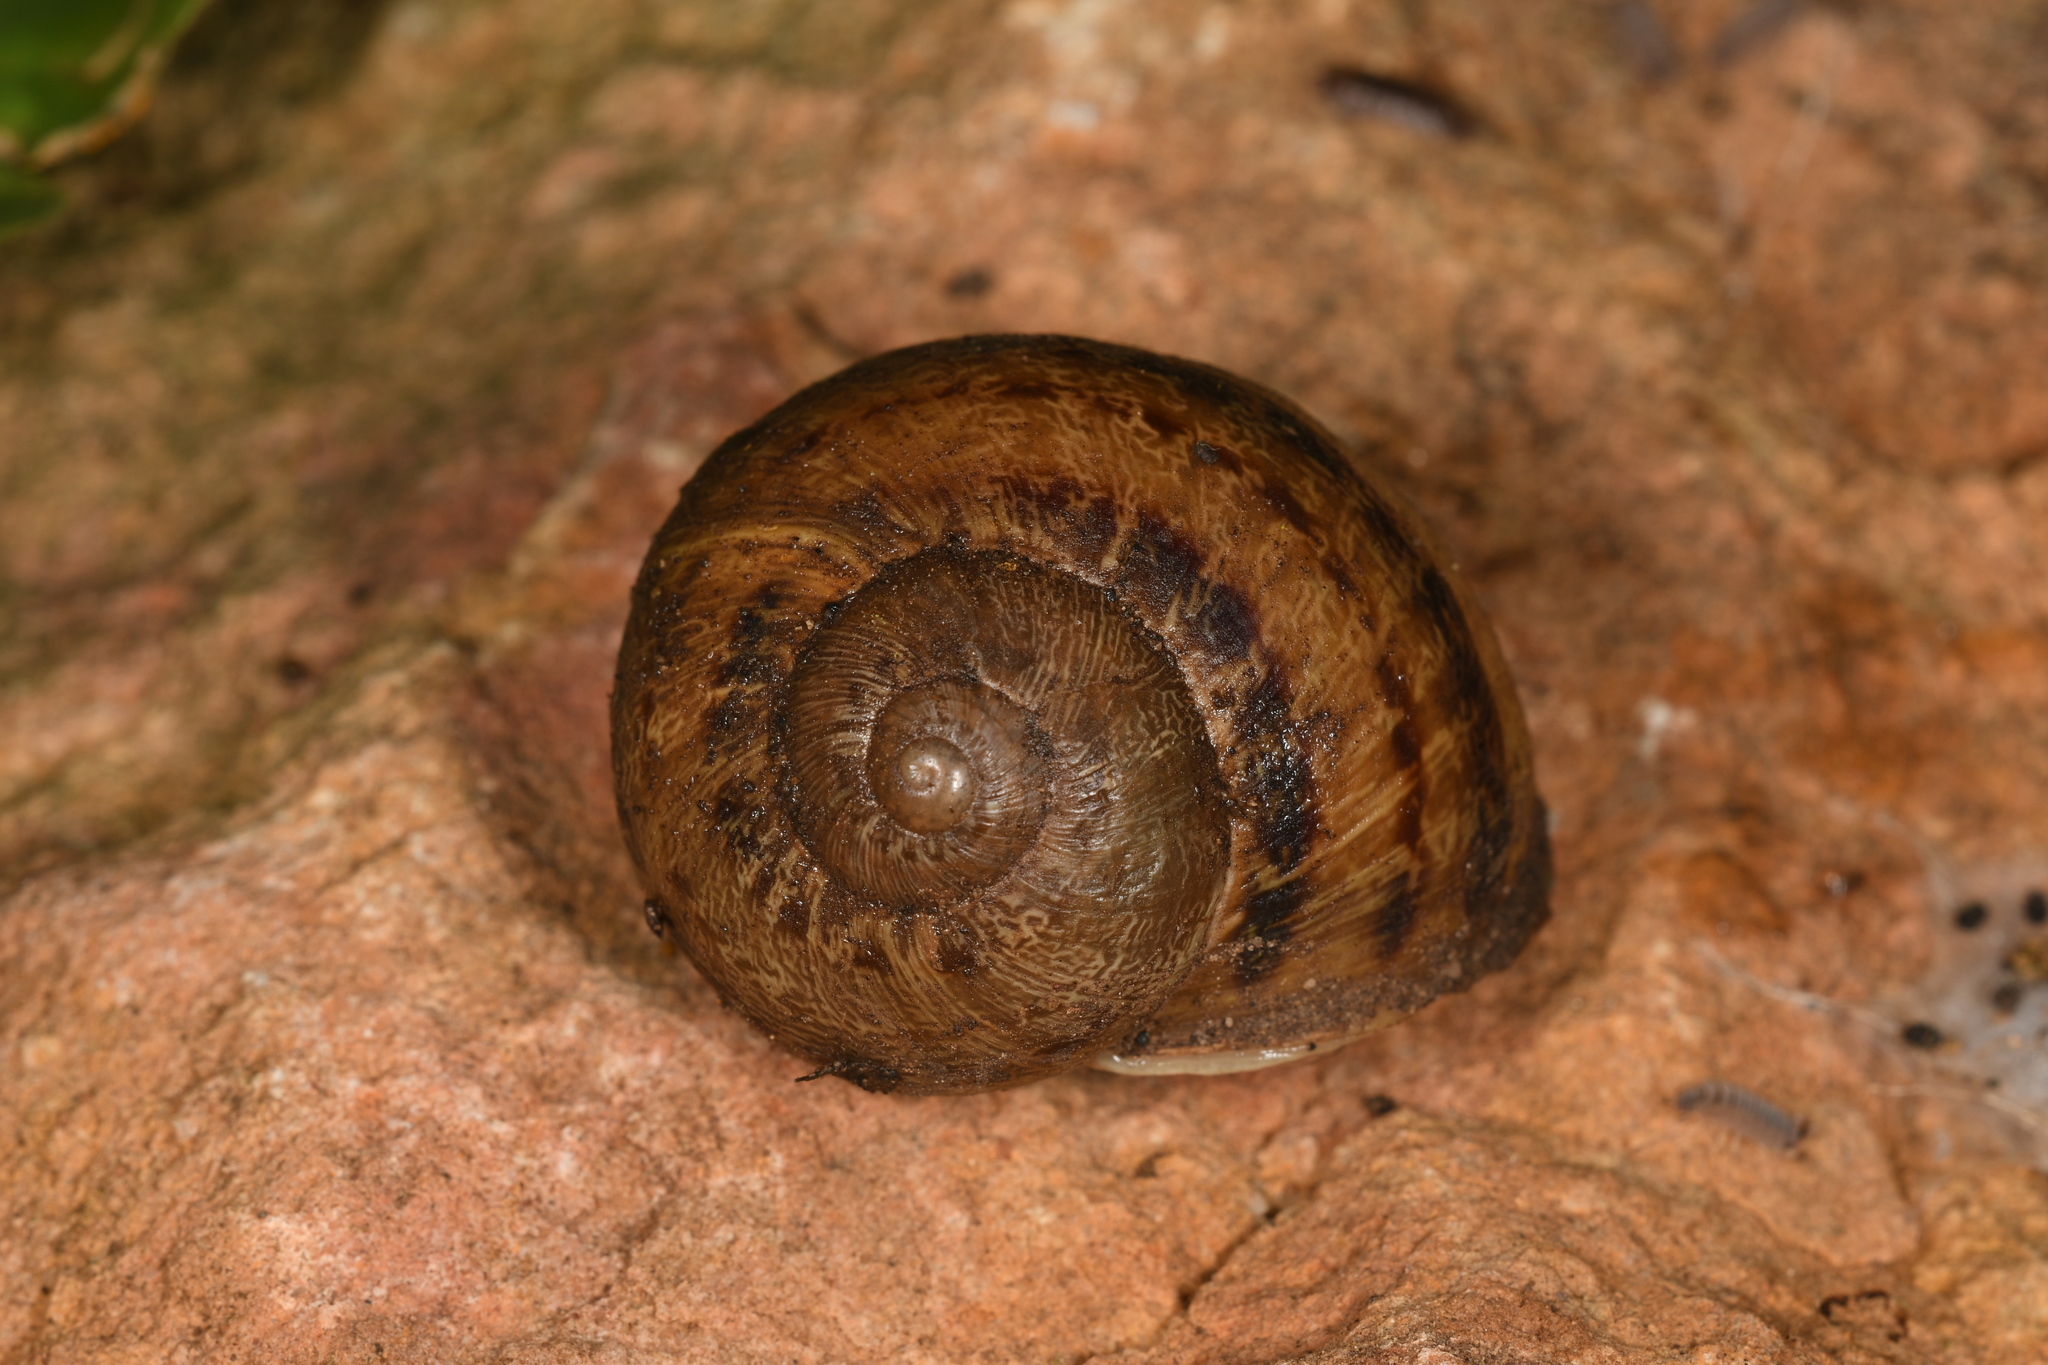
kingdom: Animalia
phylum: Mollusca
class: Gastropoda
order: Stylommatophora
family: Helicidae
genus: Cornu
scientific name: Cornu aspersum
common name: Brown garden snail
